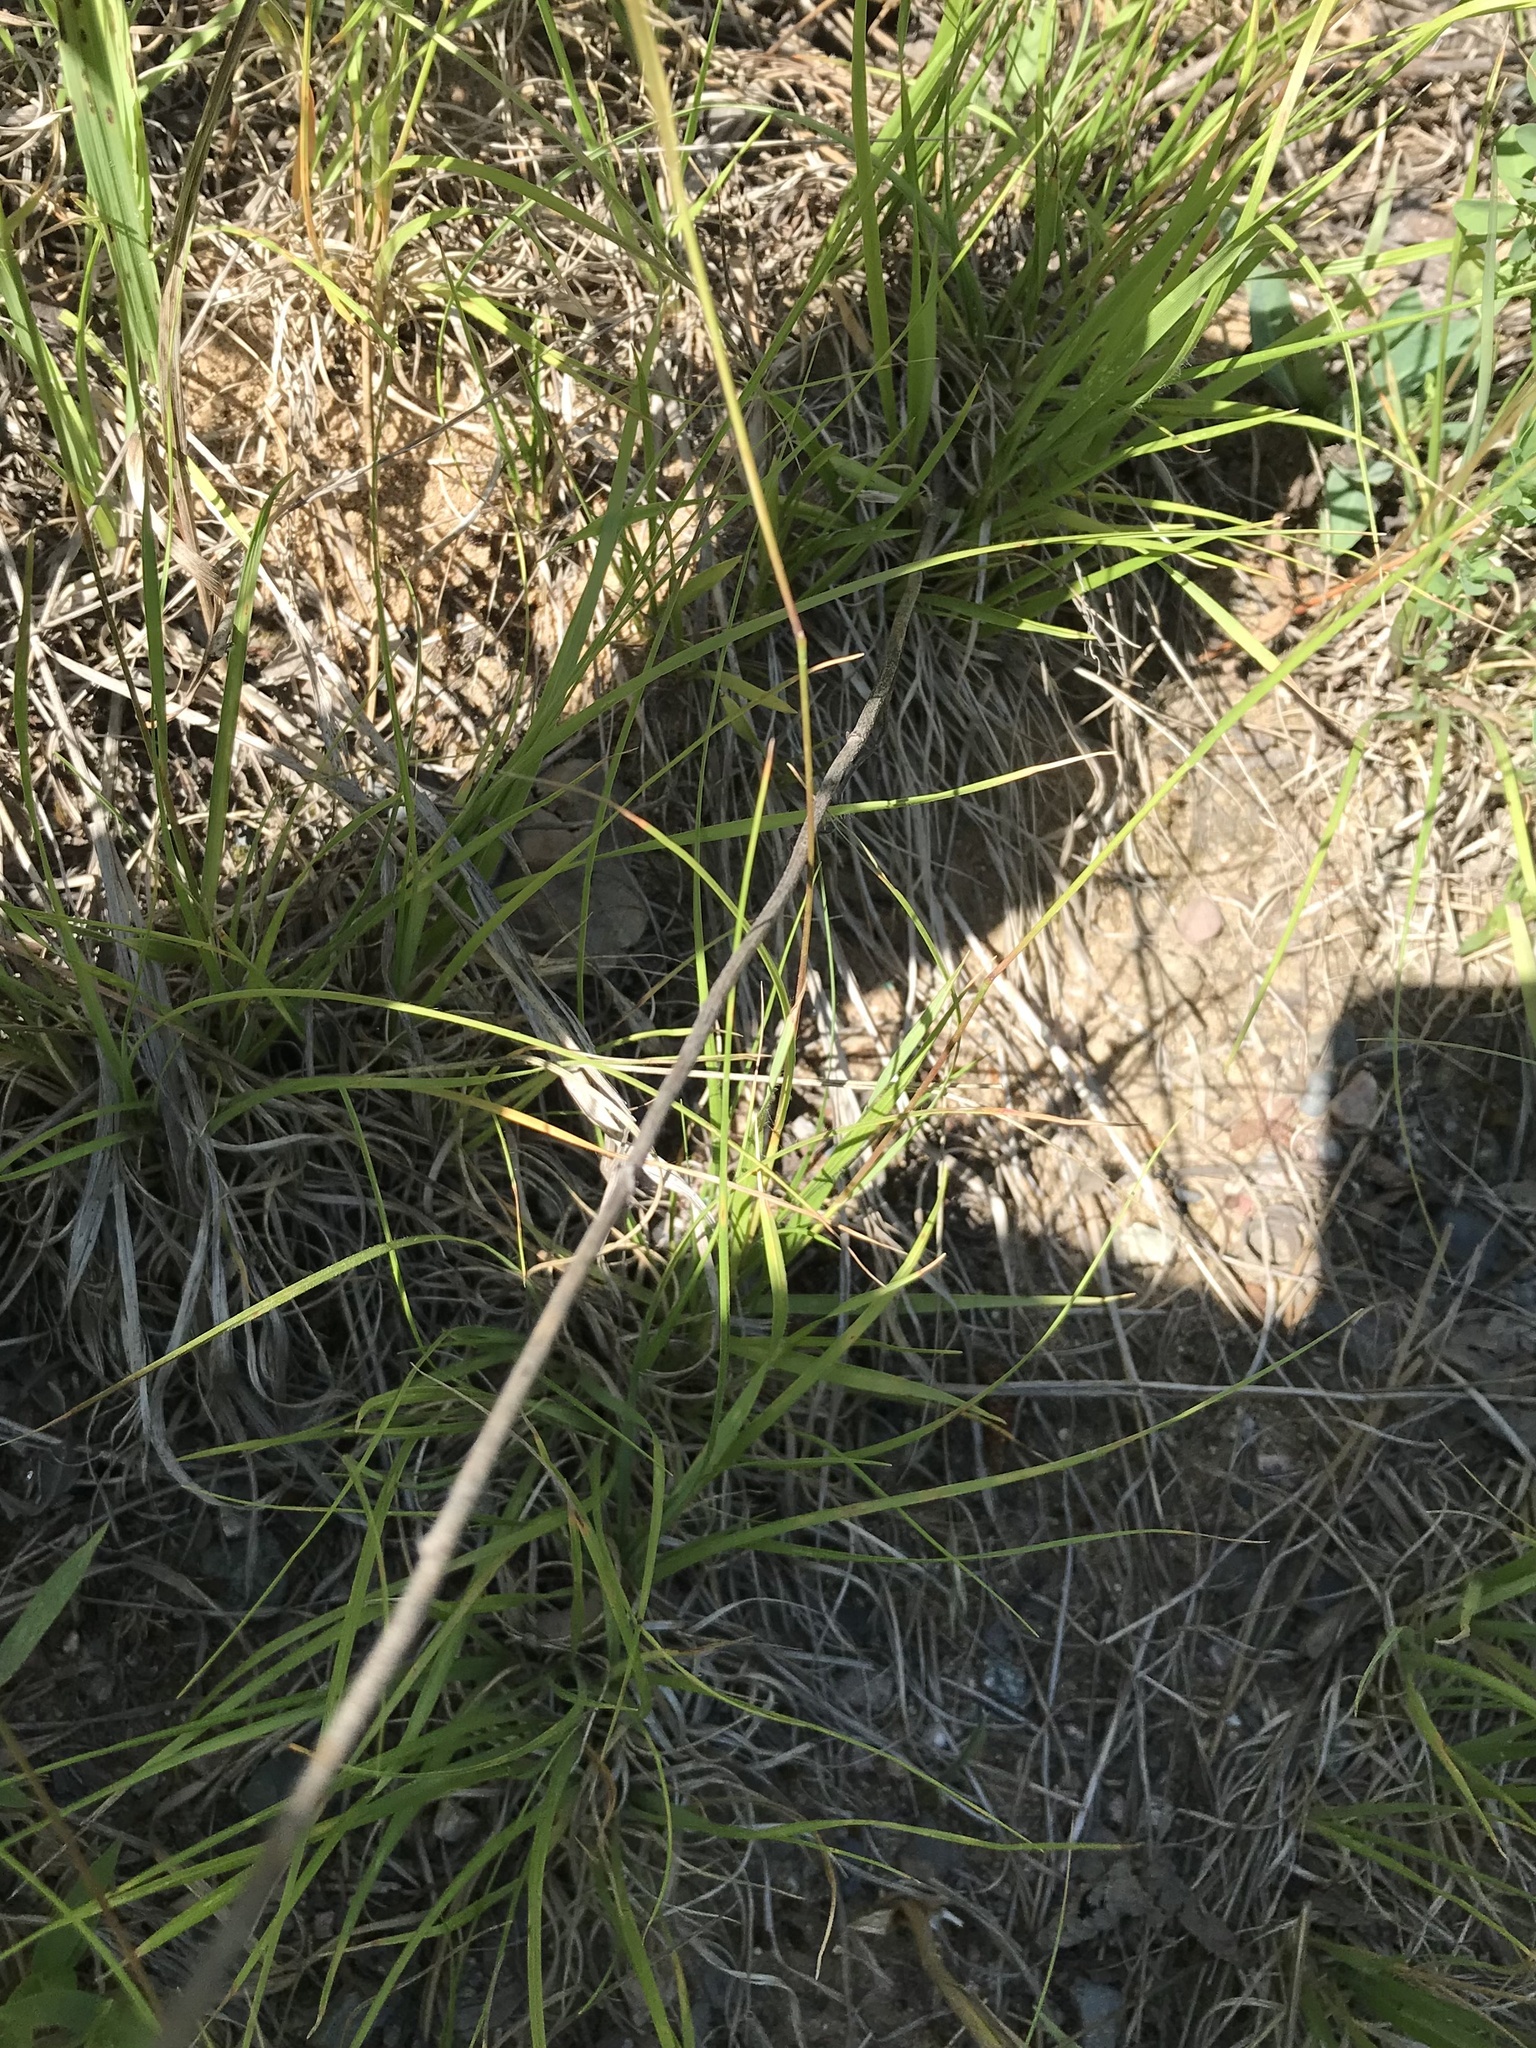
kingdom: Plantae
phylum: Tracheophyta
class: Liliopsida
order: Poales
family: Poaceae
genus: Danthonia
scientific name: Danthonia spicata
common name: Common wild oatgrass
